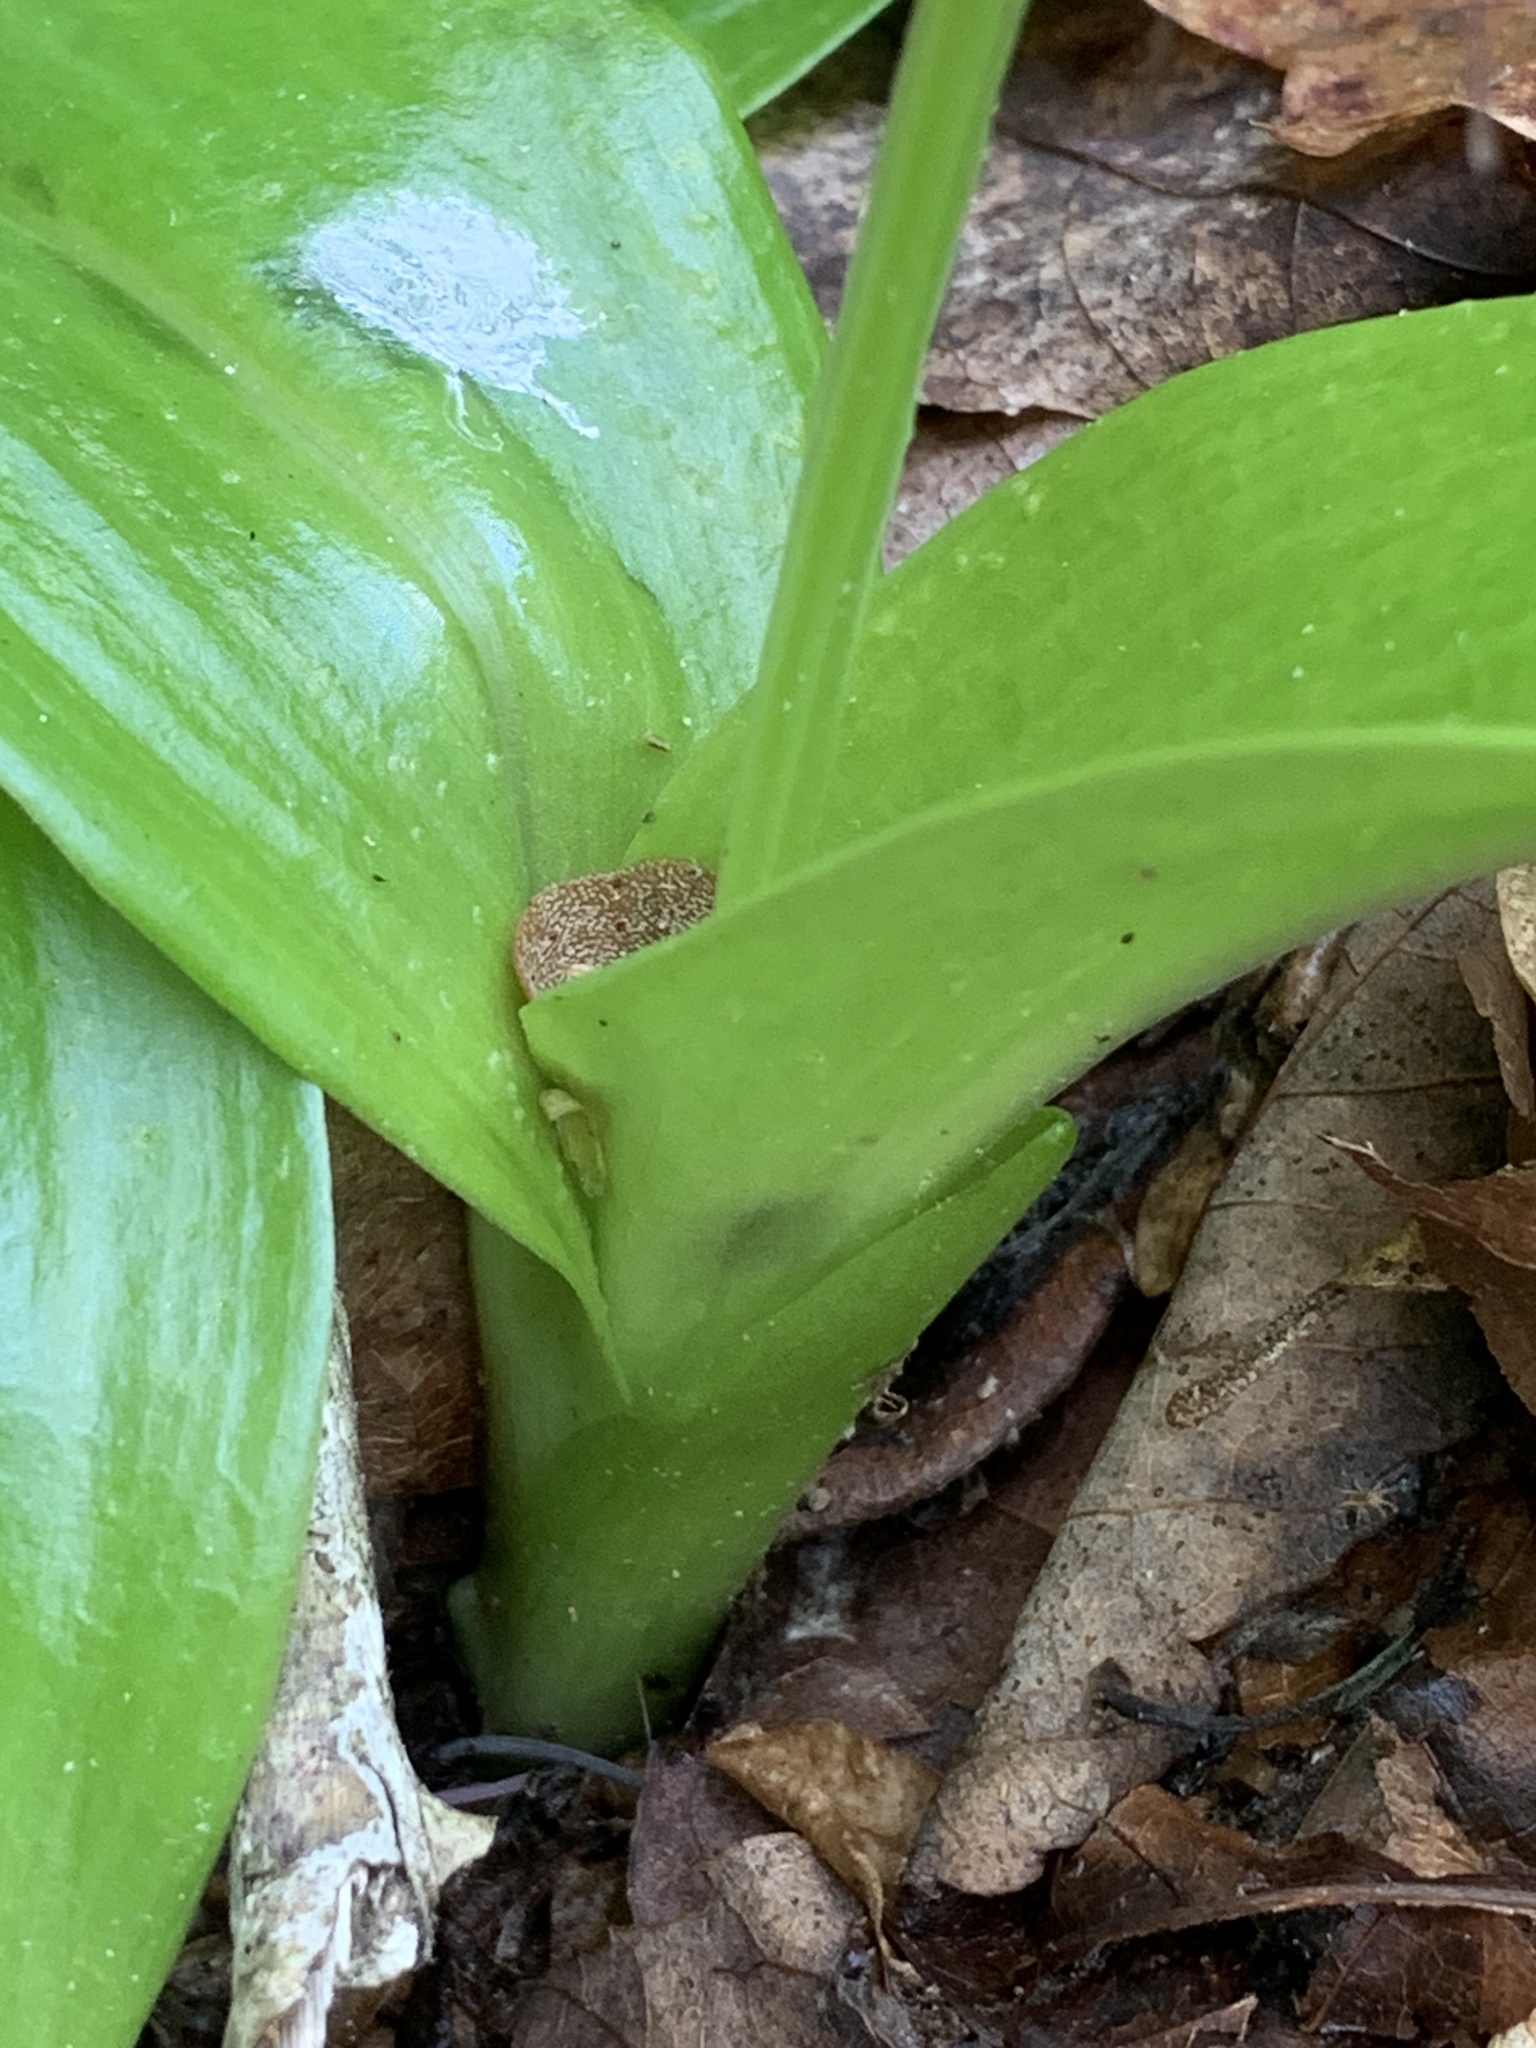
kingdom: Plantae
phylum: Tracheophyta
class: Liliopsida
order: Asparagales
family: Orchidaceae
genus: Liparis
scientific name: Liparis liliifolia
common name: Brown wide-lip orchid
